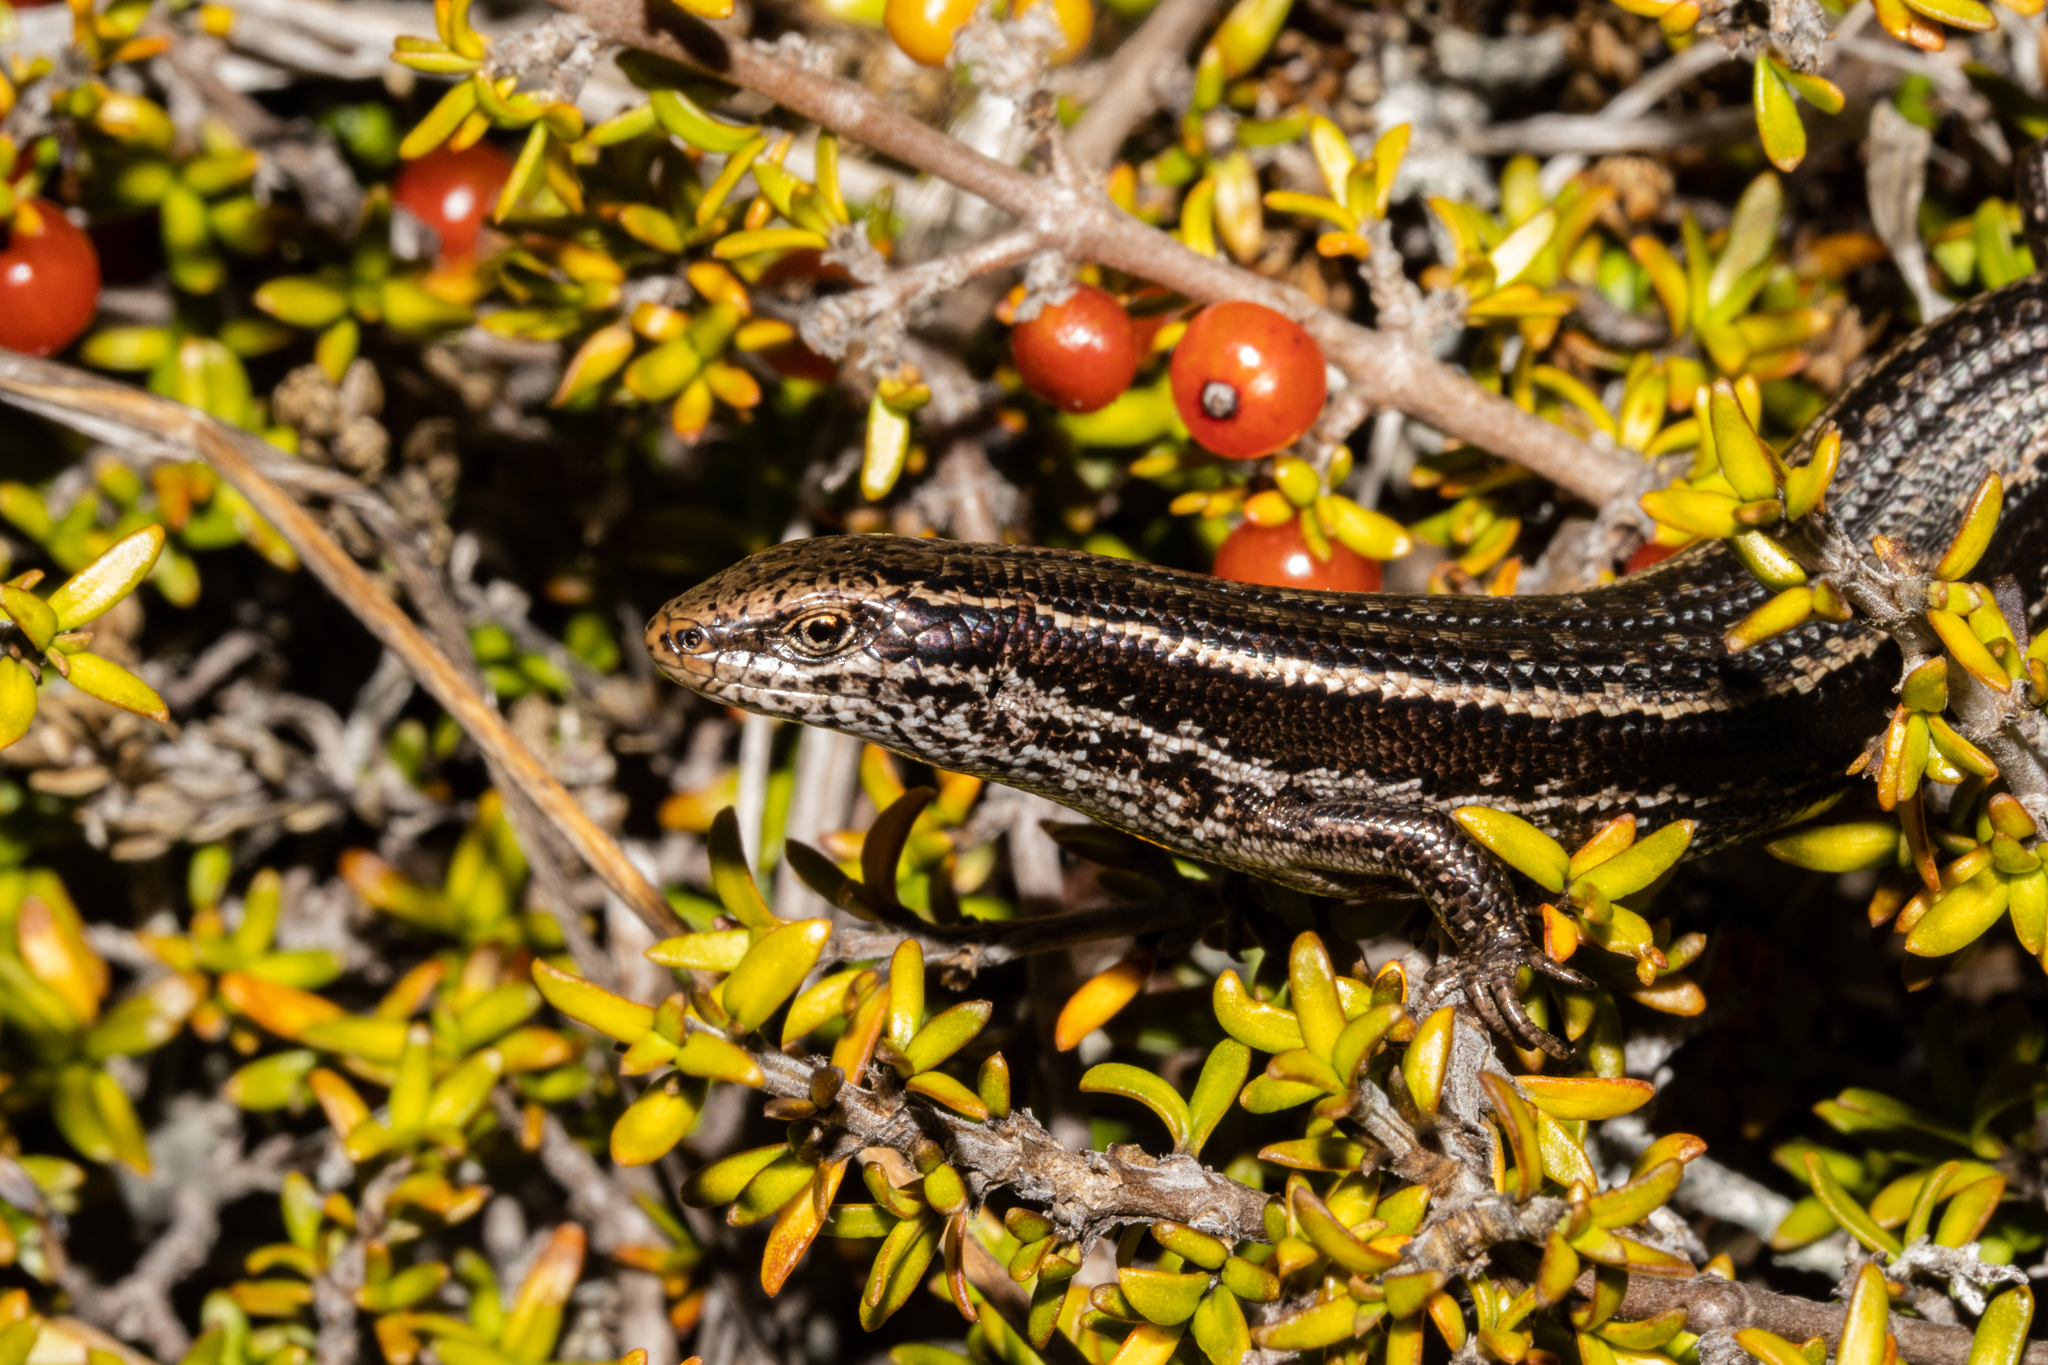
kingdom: Animalia
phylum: Chordata
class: Squamata
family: Scincidae
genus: Oligosoma
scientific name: Oligosoma burganae
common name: Burgan skink
